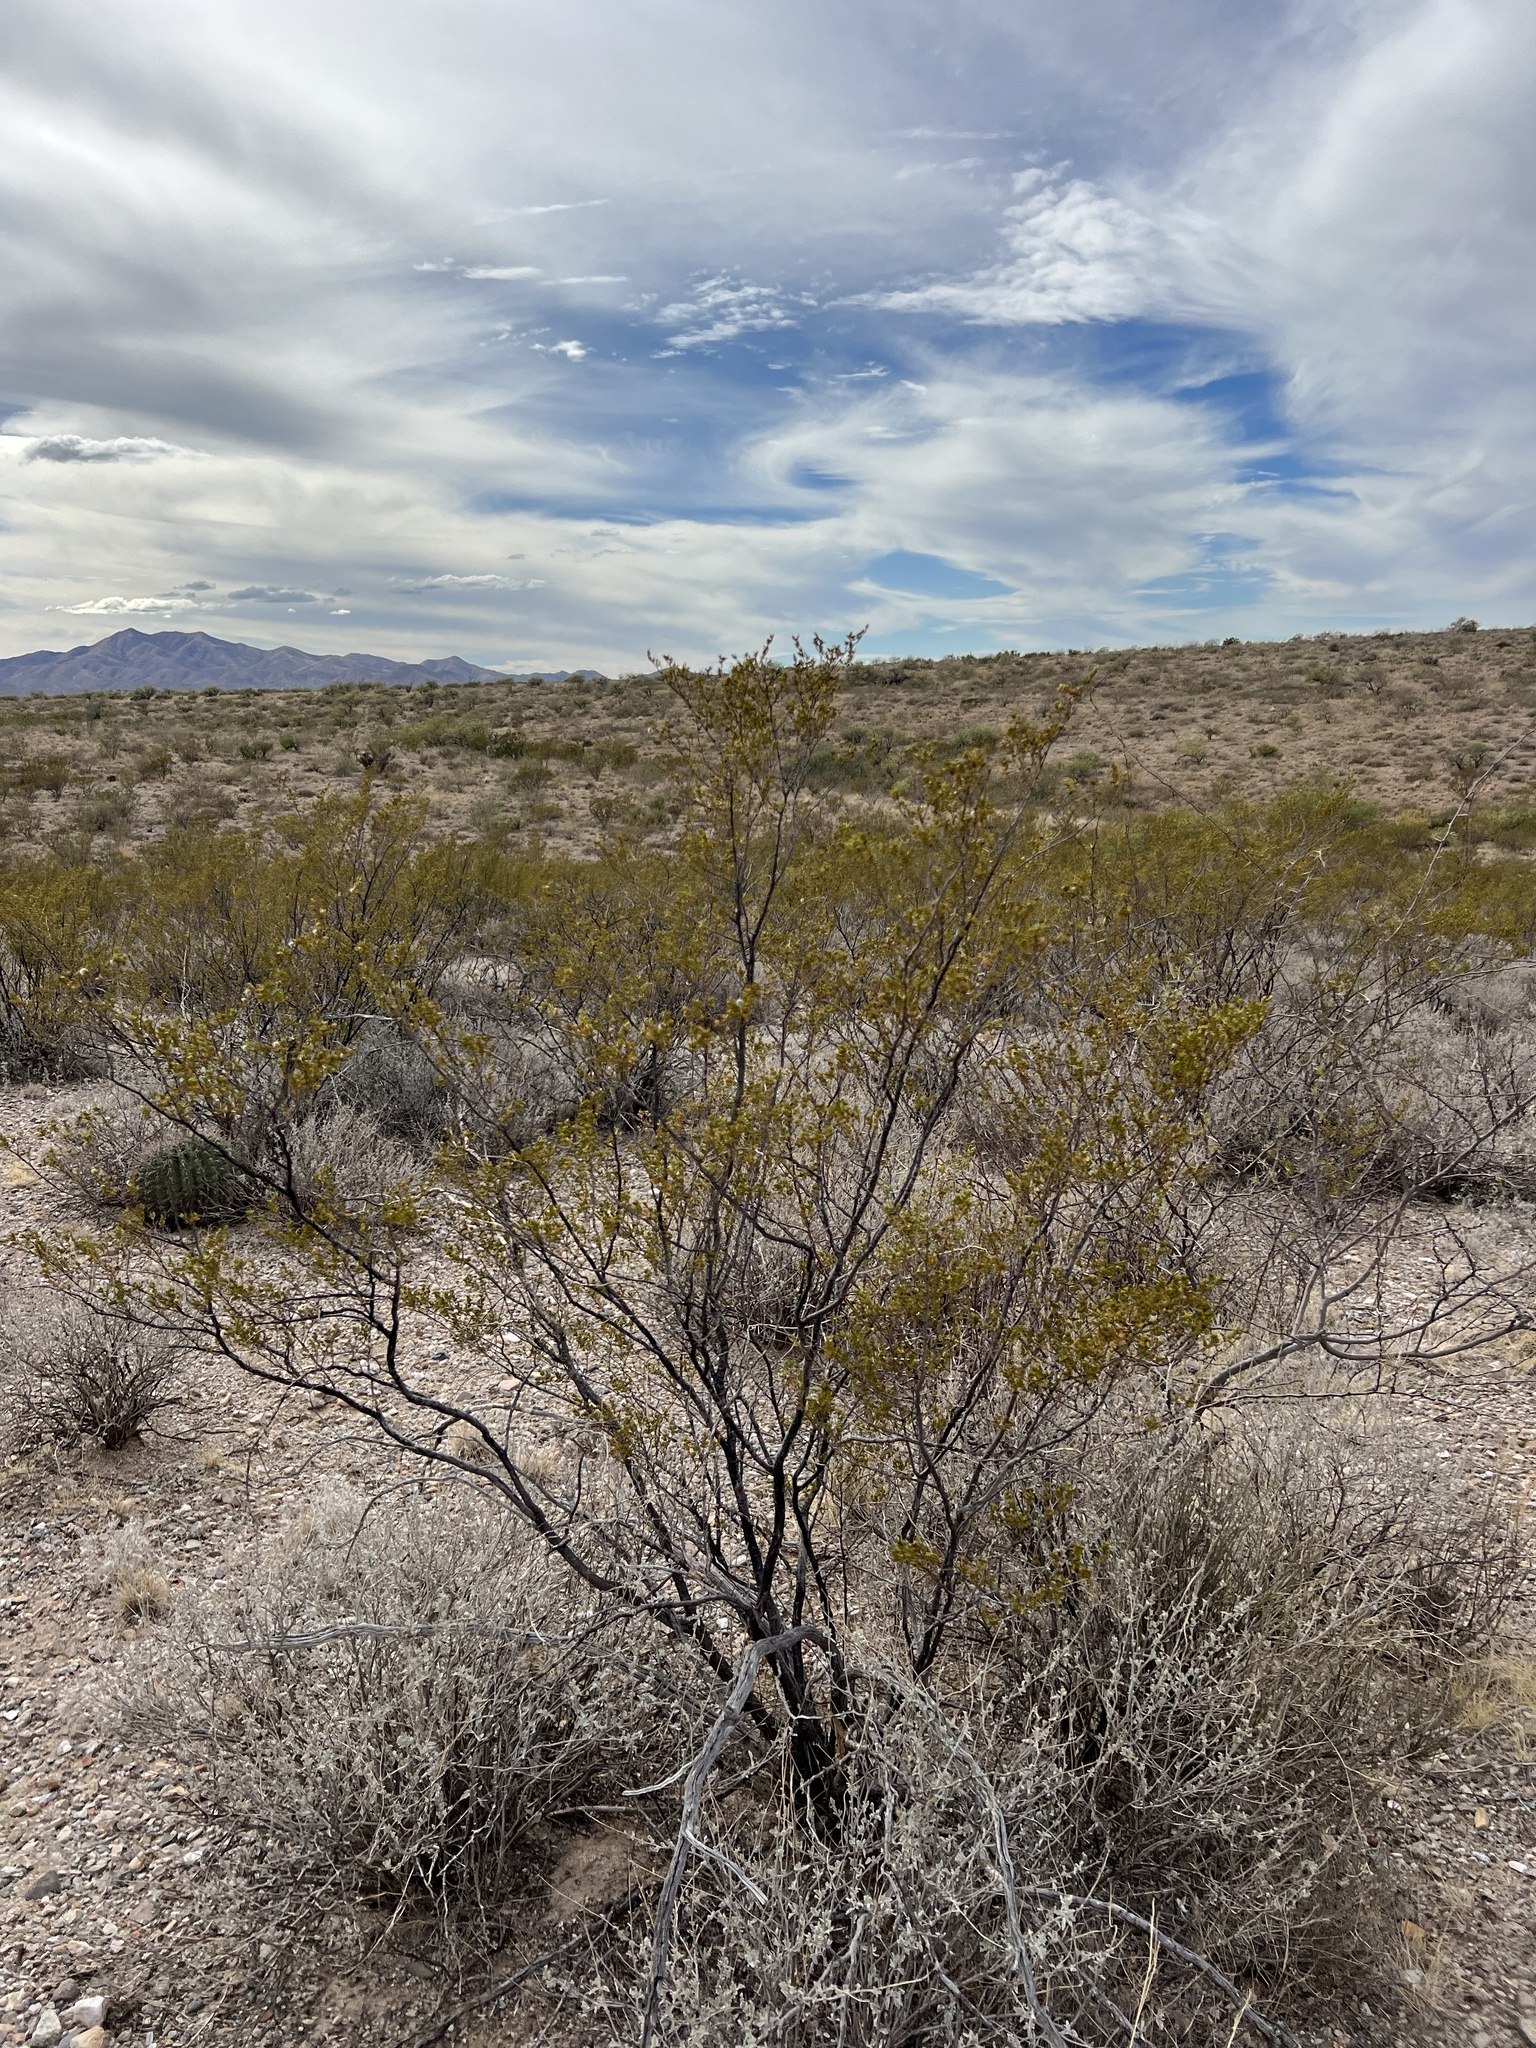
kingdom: Plantae
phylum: Tracheophyta
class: Magnoliopsida
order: Zygophyllales
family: Zygophyllaceae
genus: Larrea
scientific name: Larrea tridentata
